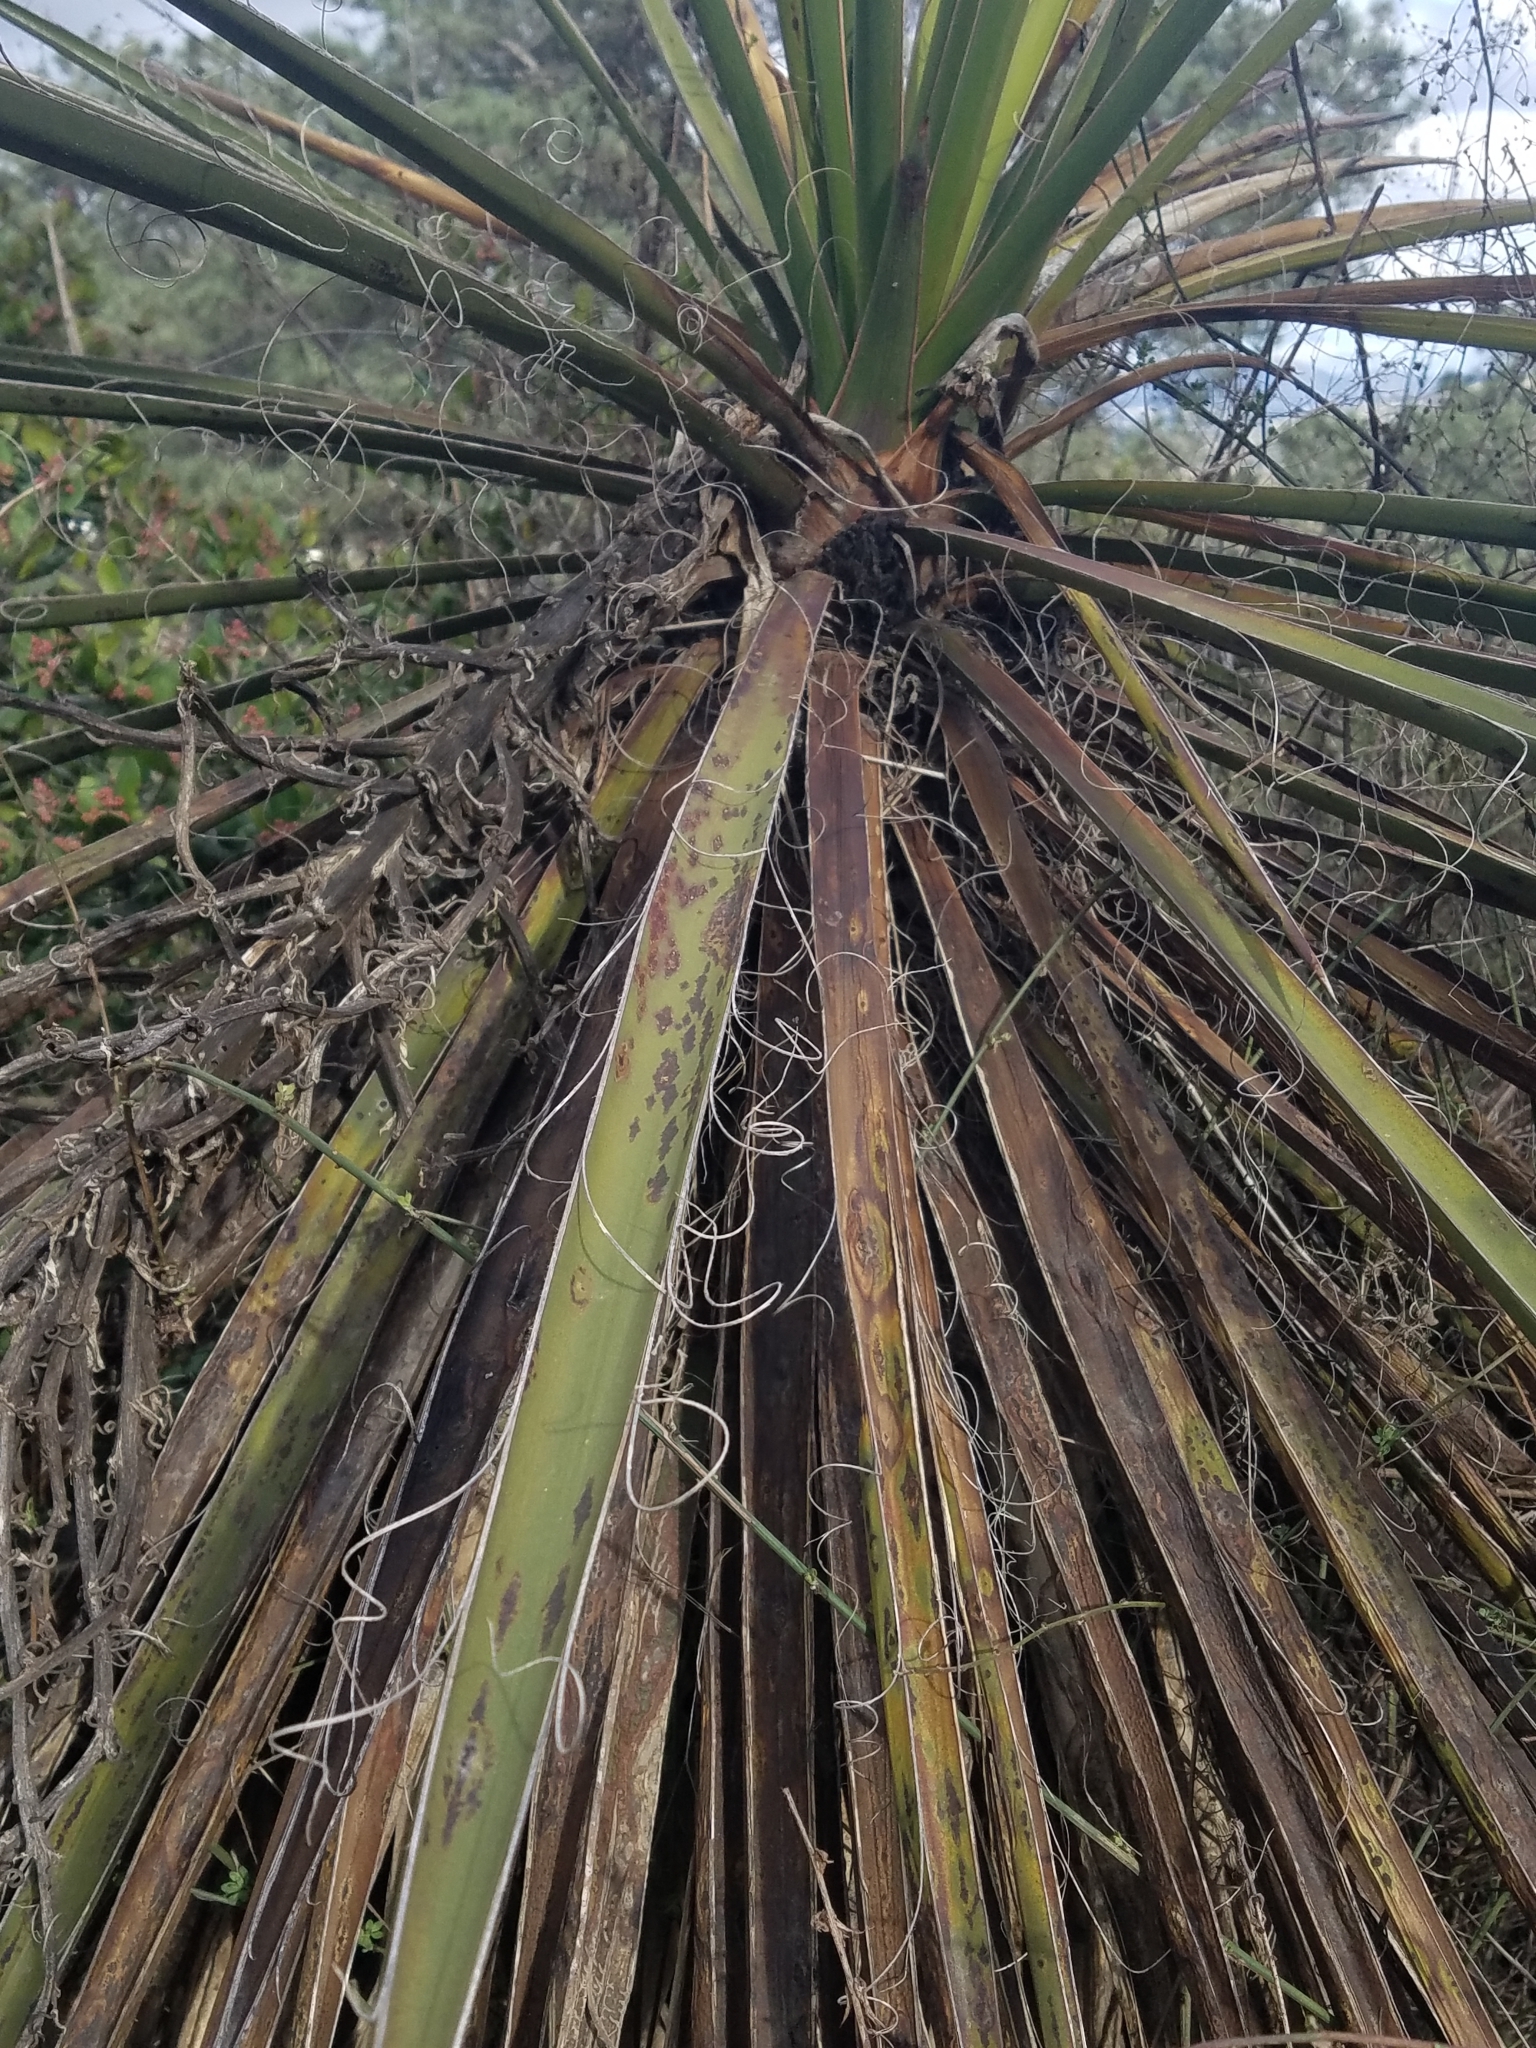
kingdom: Plantae
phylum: Tracheophyta
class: Liliopsida
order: Asparagales
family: Asparagaceae
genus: Yucca
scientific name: Yucca schidigera
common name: Mojave yucca
